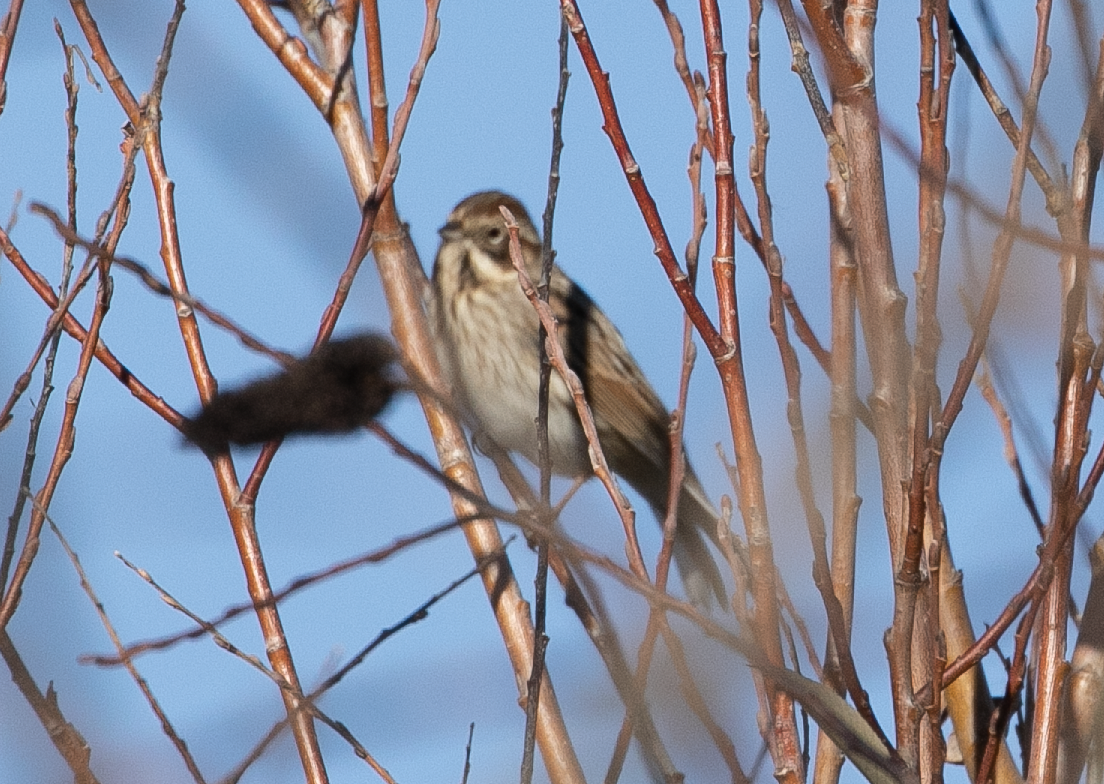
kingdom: Animalia
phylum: Chordata
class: Aves
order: Passeriformes
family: Emberizidae
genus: Emberiza
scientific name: Emberiza schoeniclus
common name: Reed bunting
